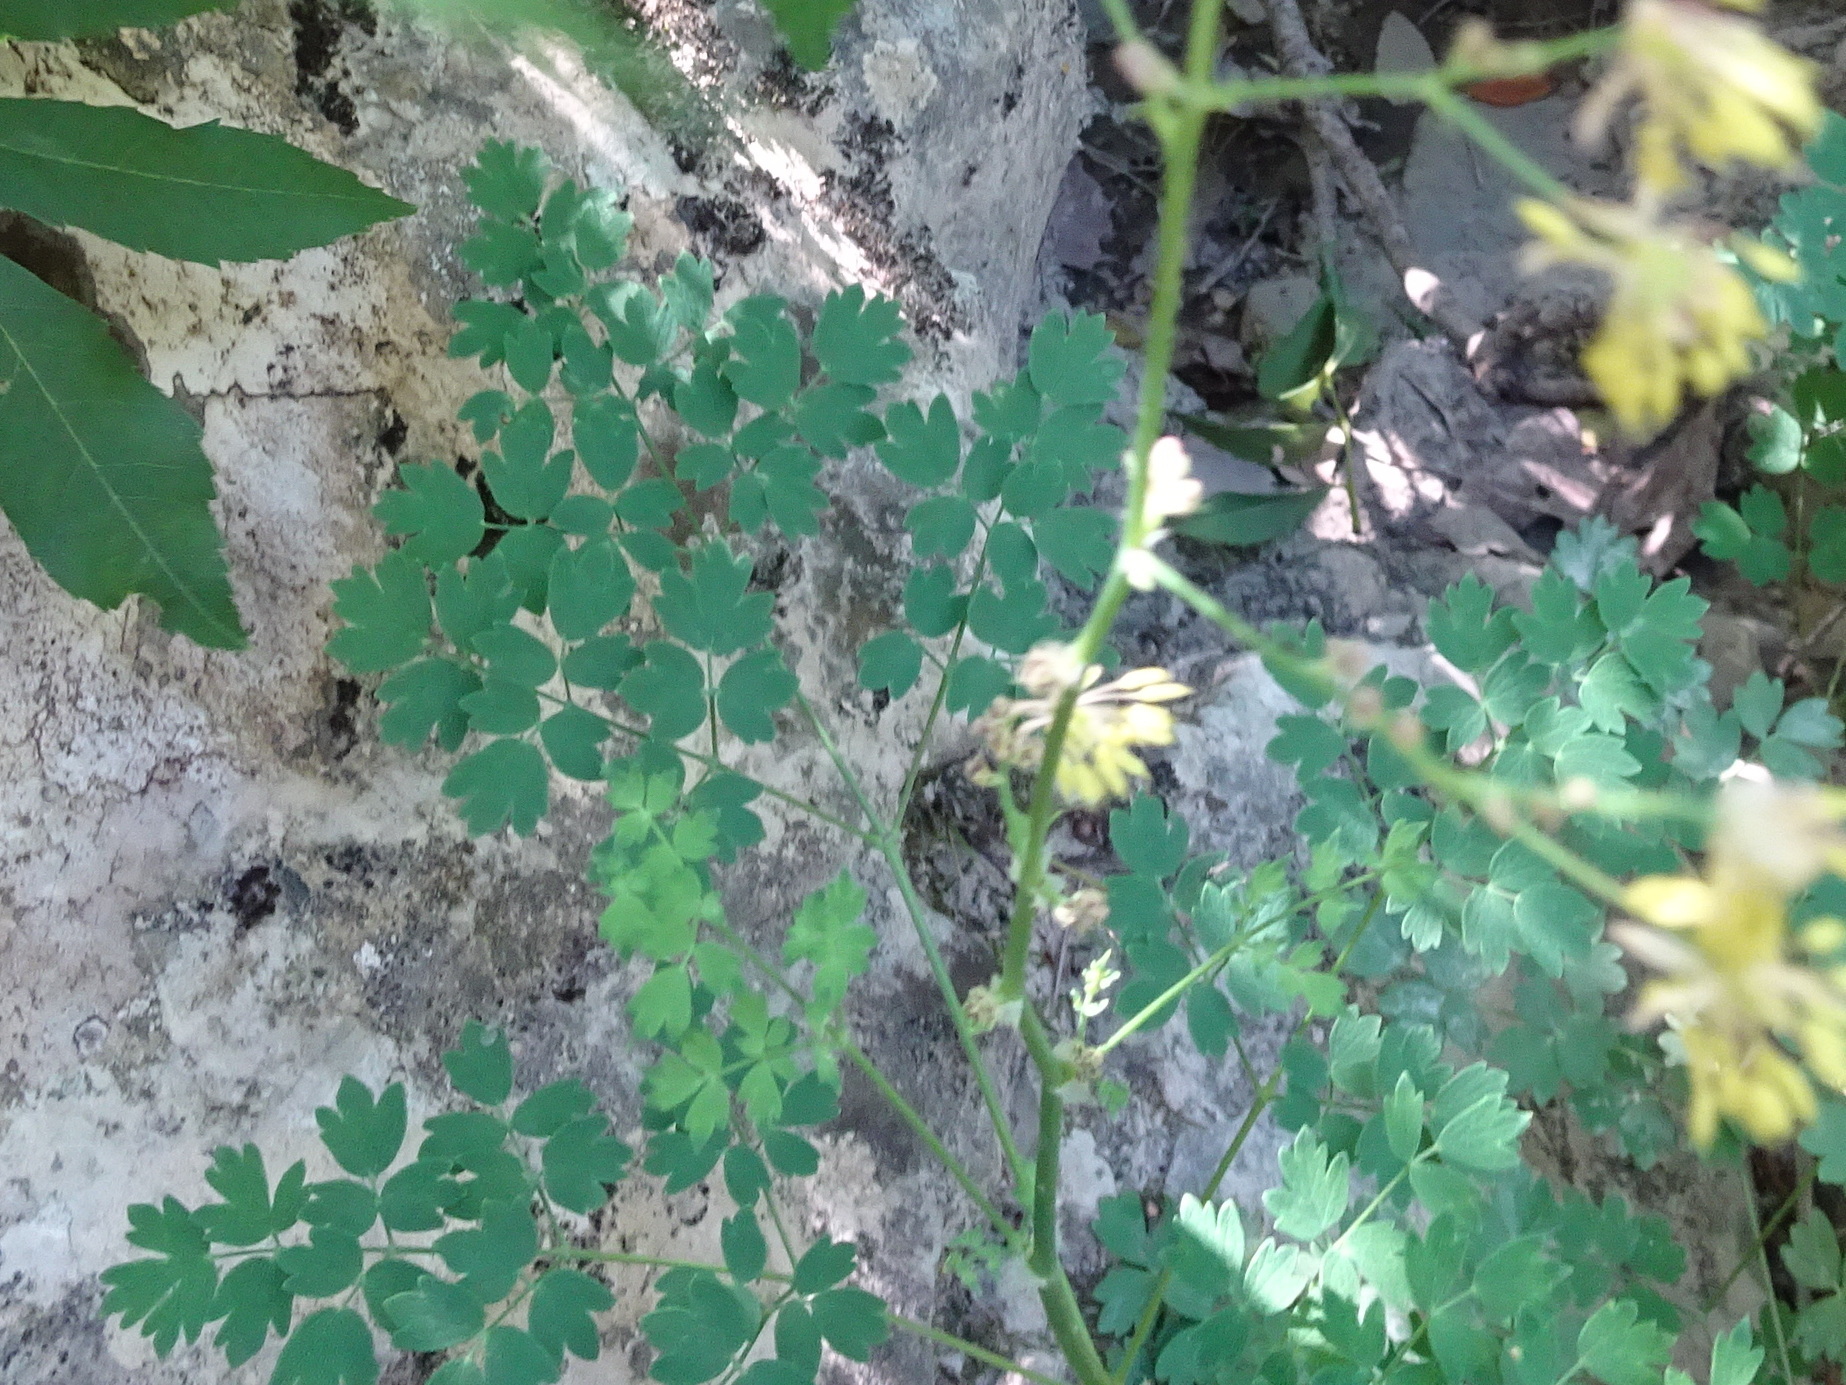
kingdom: Plantae
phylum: Tracheophyta
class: Magnoliopsida
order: Ranunculales
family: Ranunculaceae
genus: Thalictrum
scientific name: Thalictrum minus
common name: Lesser meadow-rue
